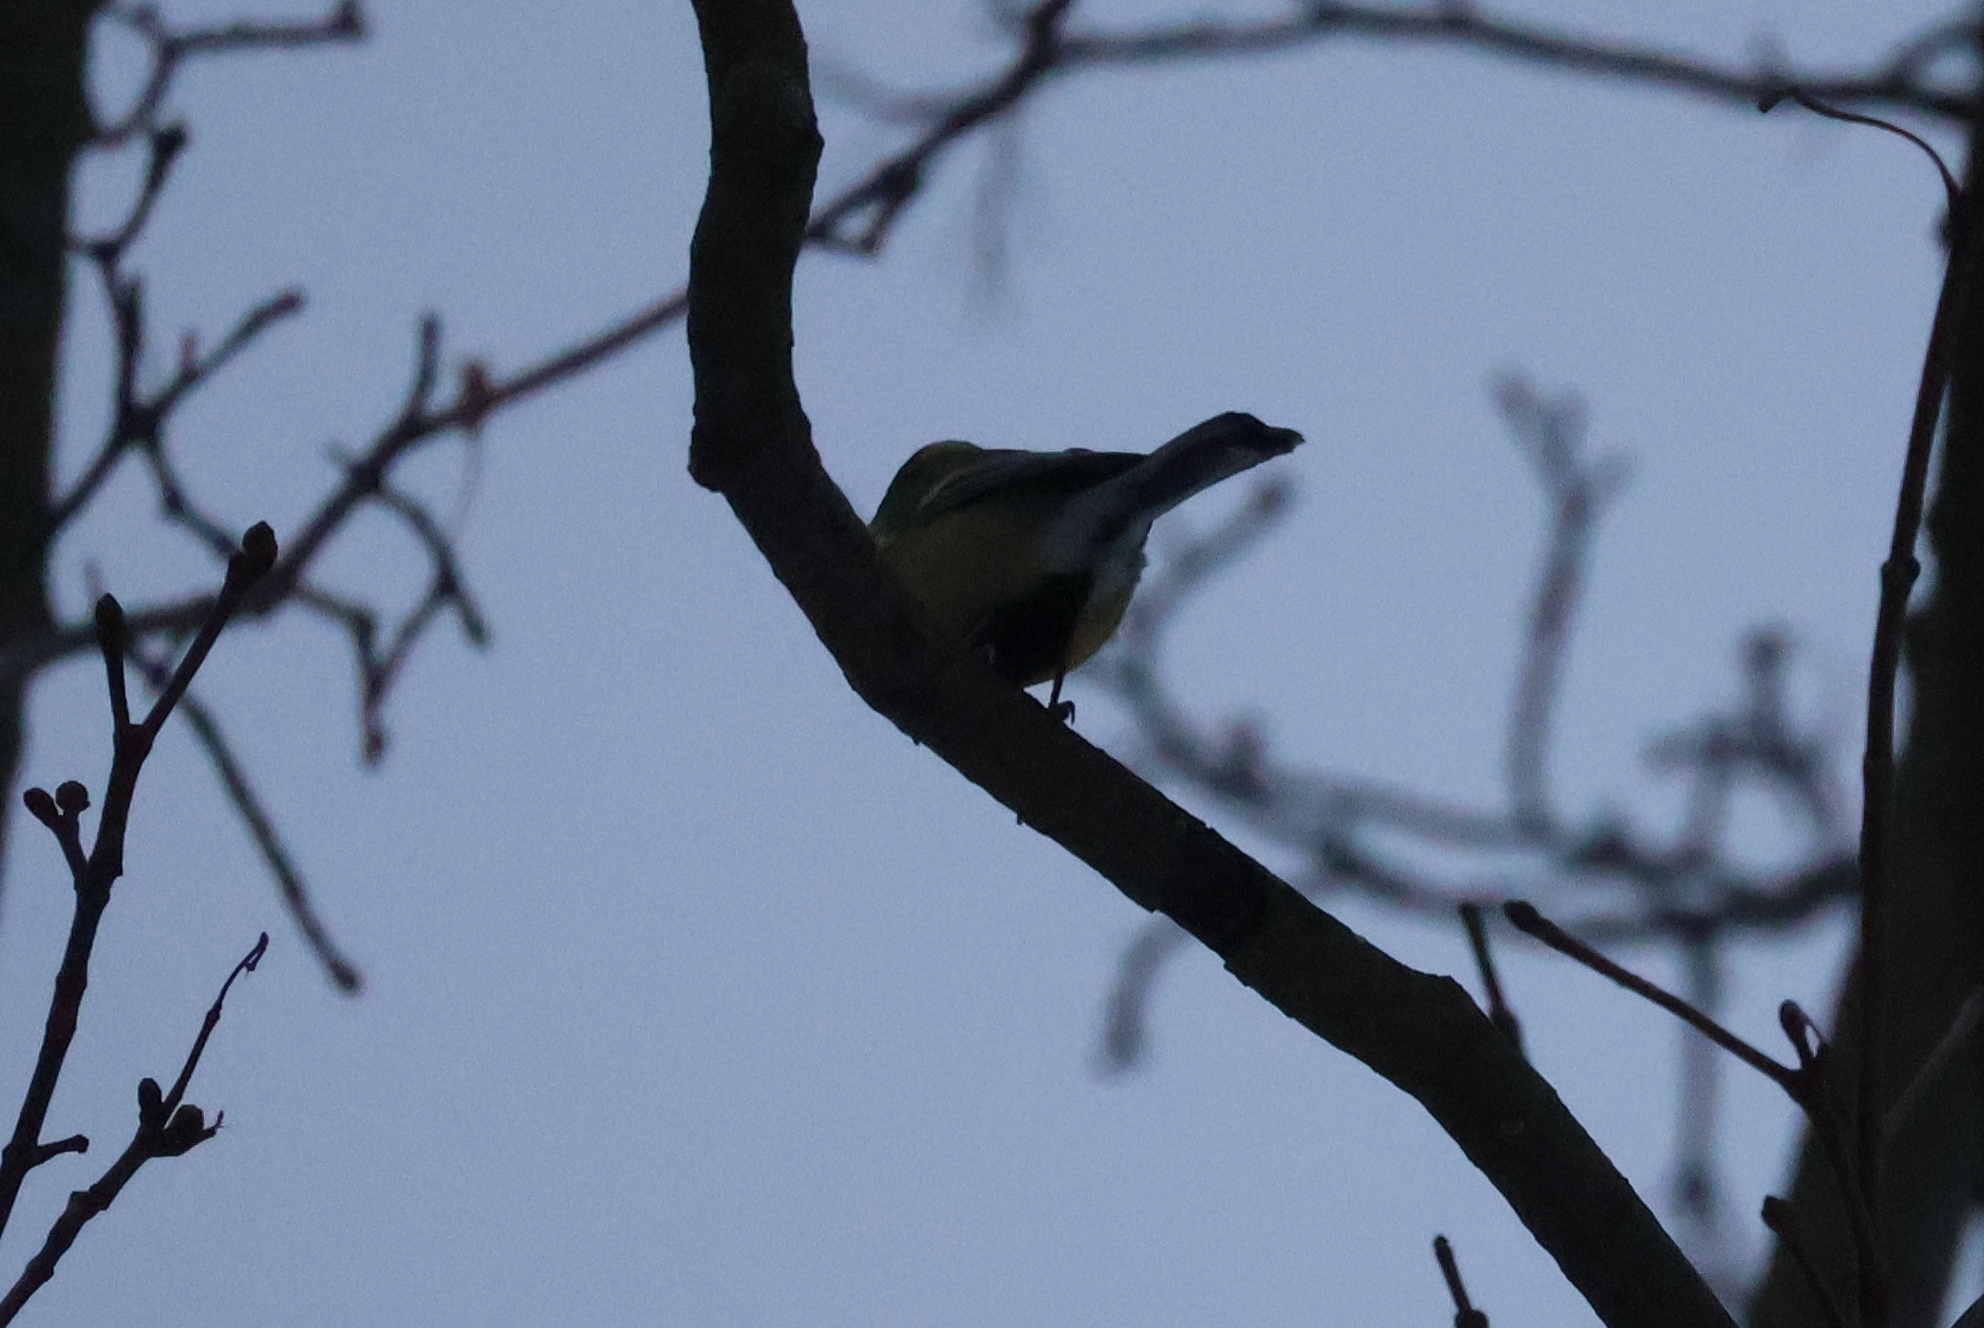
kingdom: Animalia
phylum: Chordata
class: Aves
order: Passeriformes
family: Paridae
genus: Parus
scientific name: Parus major
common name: Great tit
